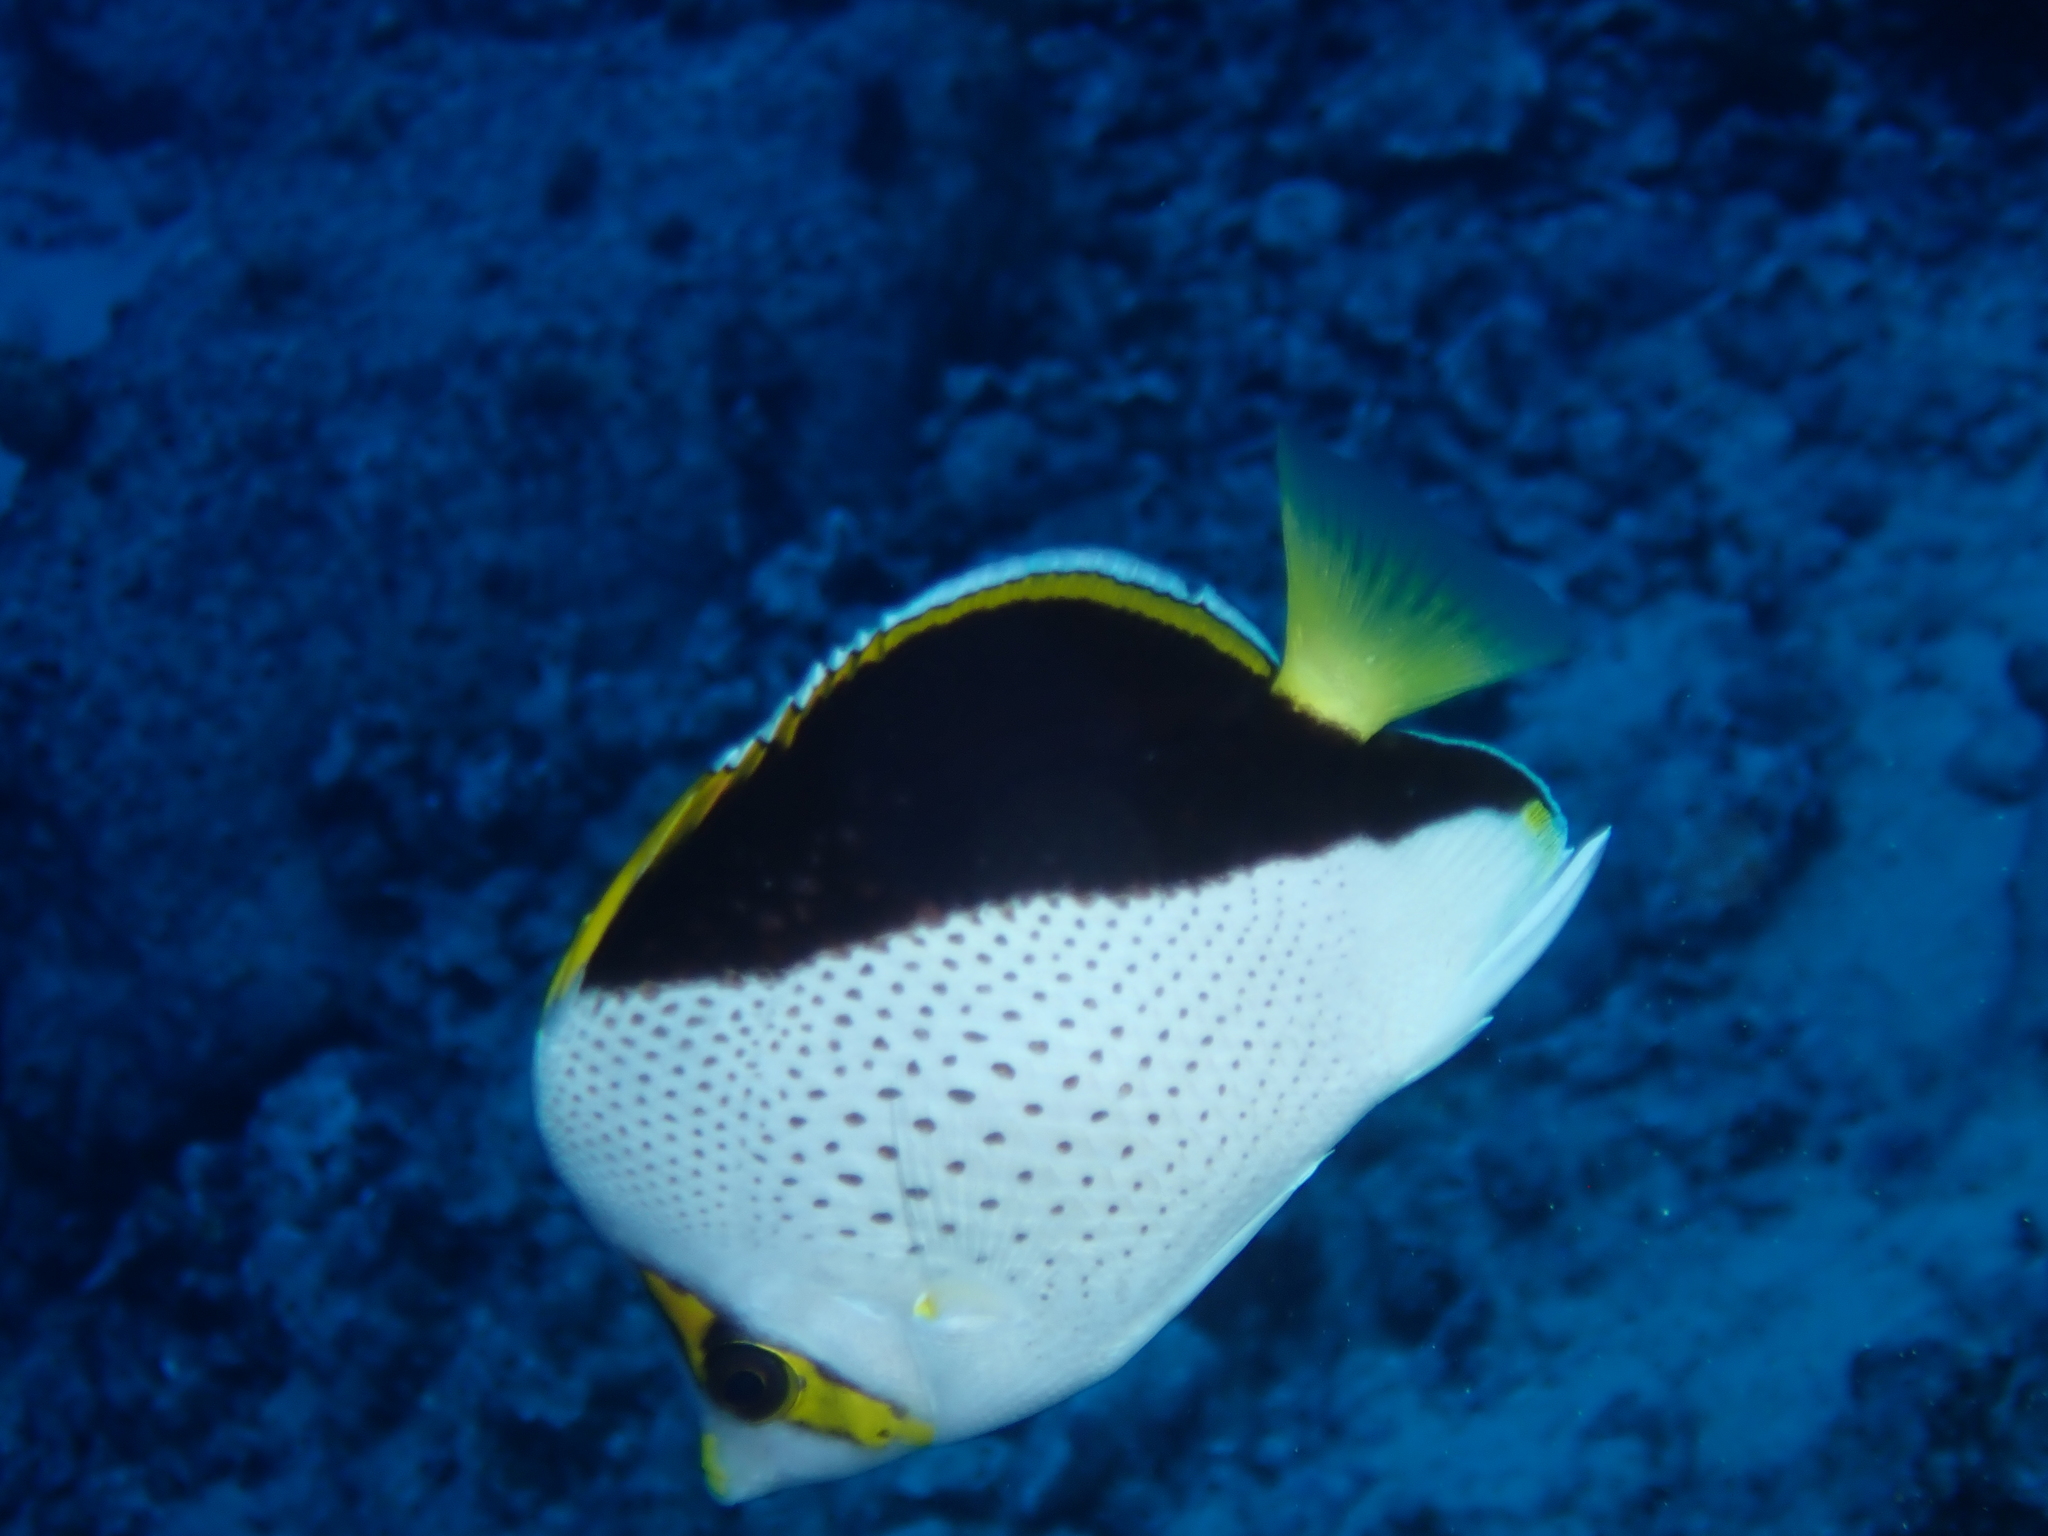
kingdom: Animalia
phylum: Chordata
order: Perciformes
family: Chaetodontidae
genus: Chaetodon
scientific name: Chaetodon tinkeri
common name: Tinker's butterflyfish
